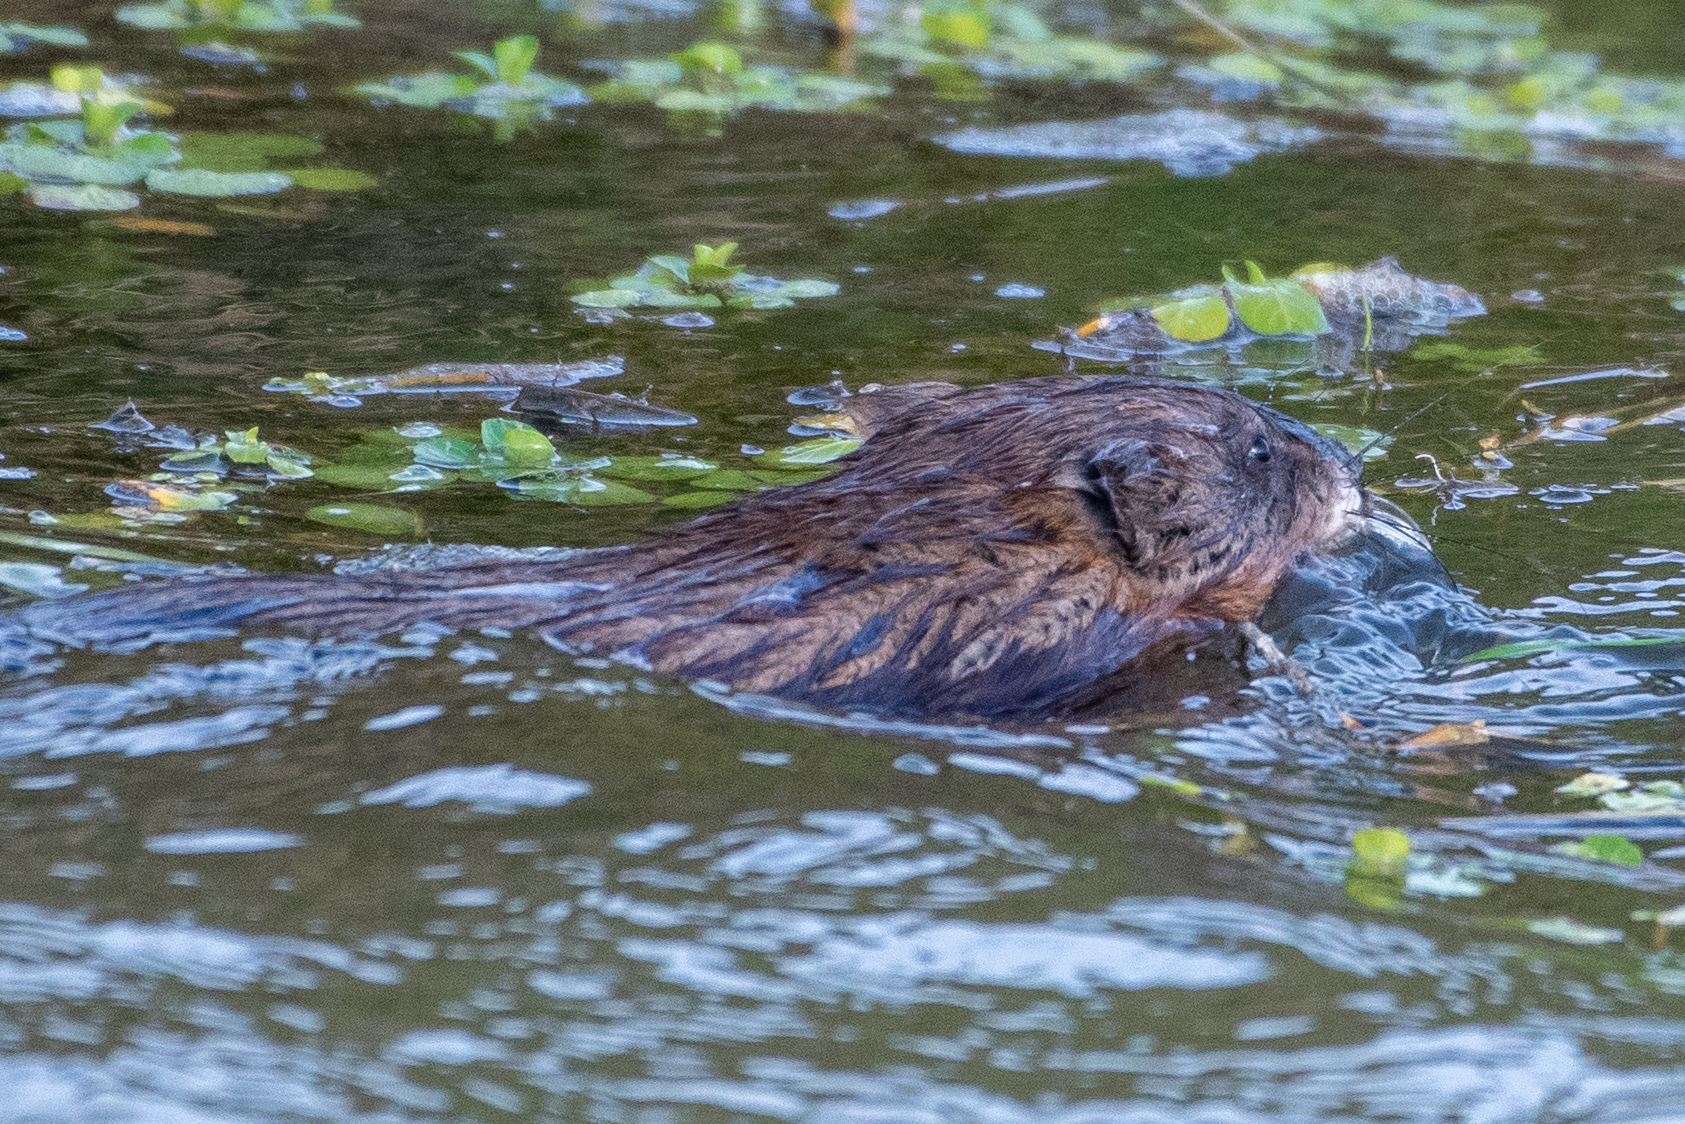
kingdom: Animalia
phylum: Chordata
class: Mammalia
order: Rodentia
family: Cricetidae
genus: Ondatra
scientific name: Ondatra zibethicus
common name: Muskrat
